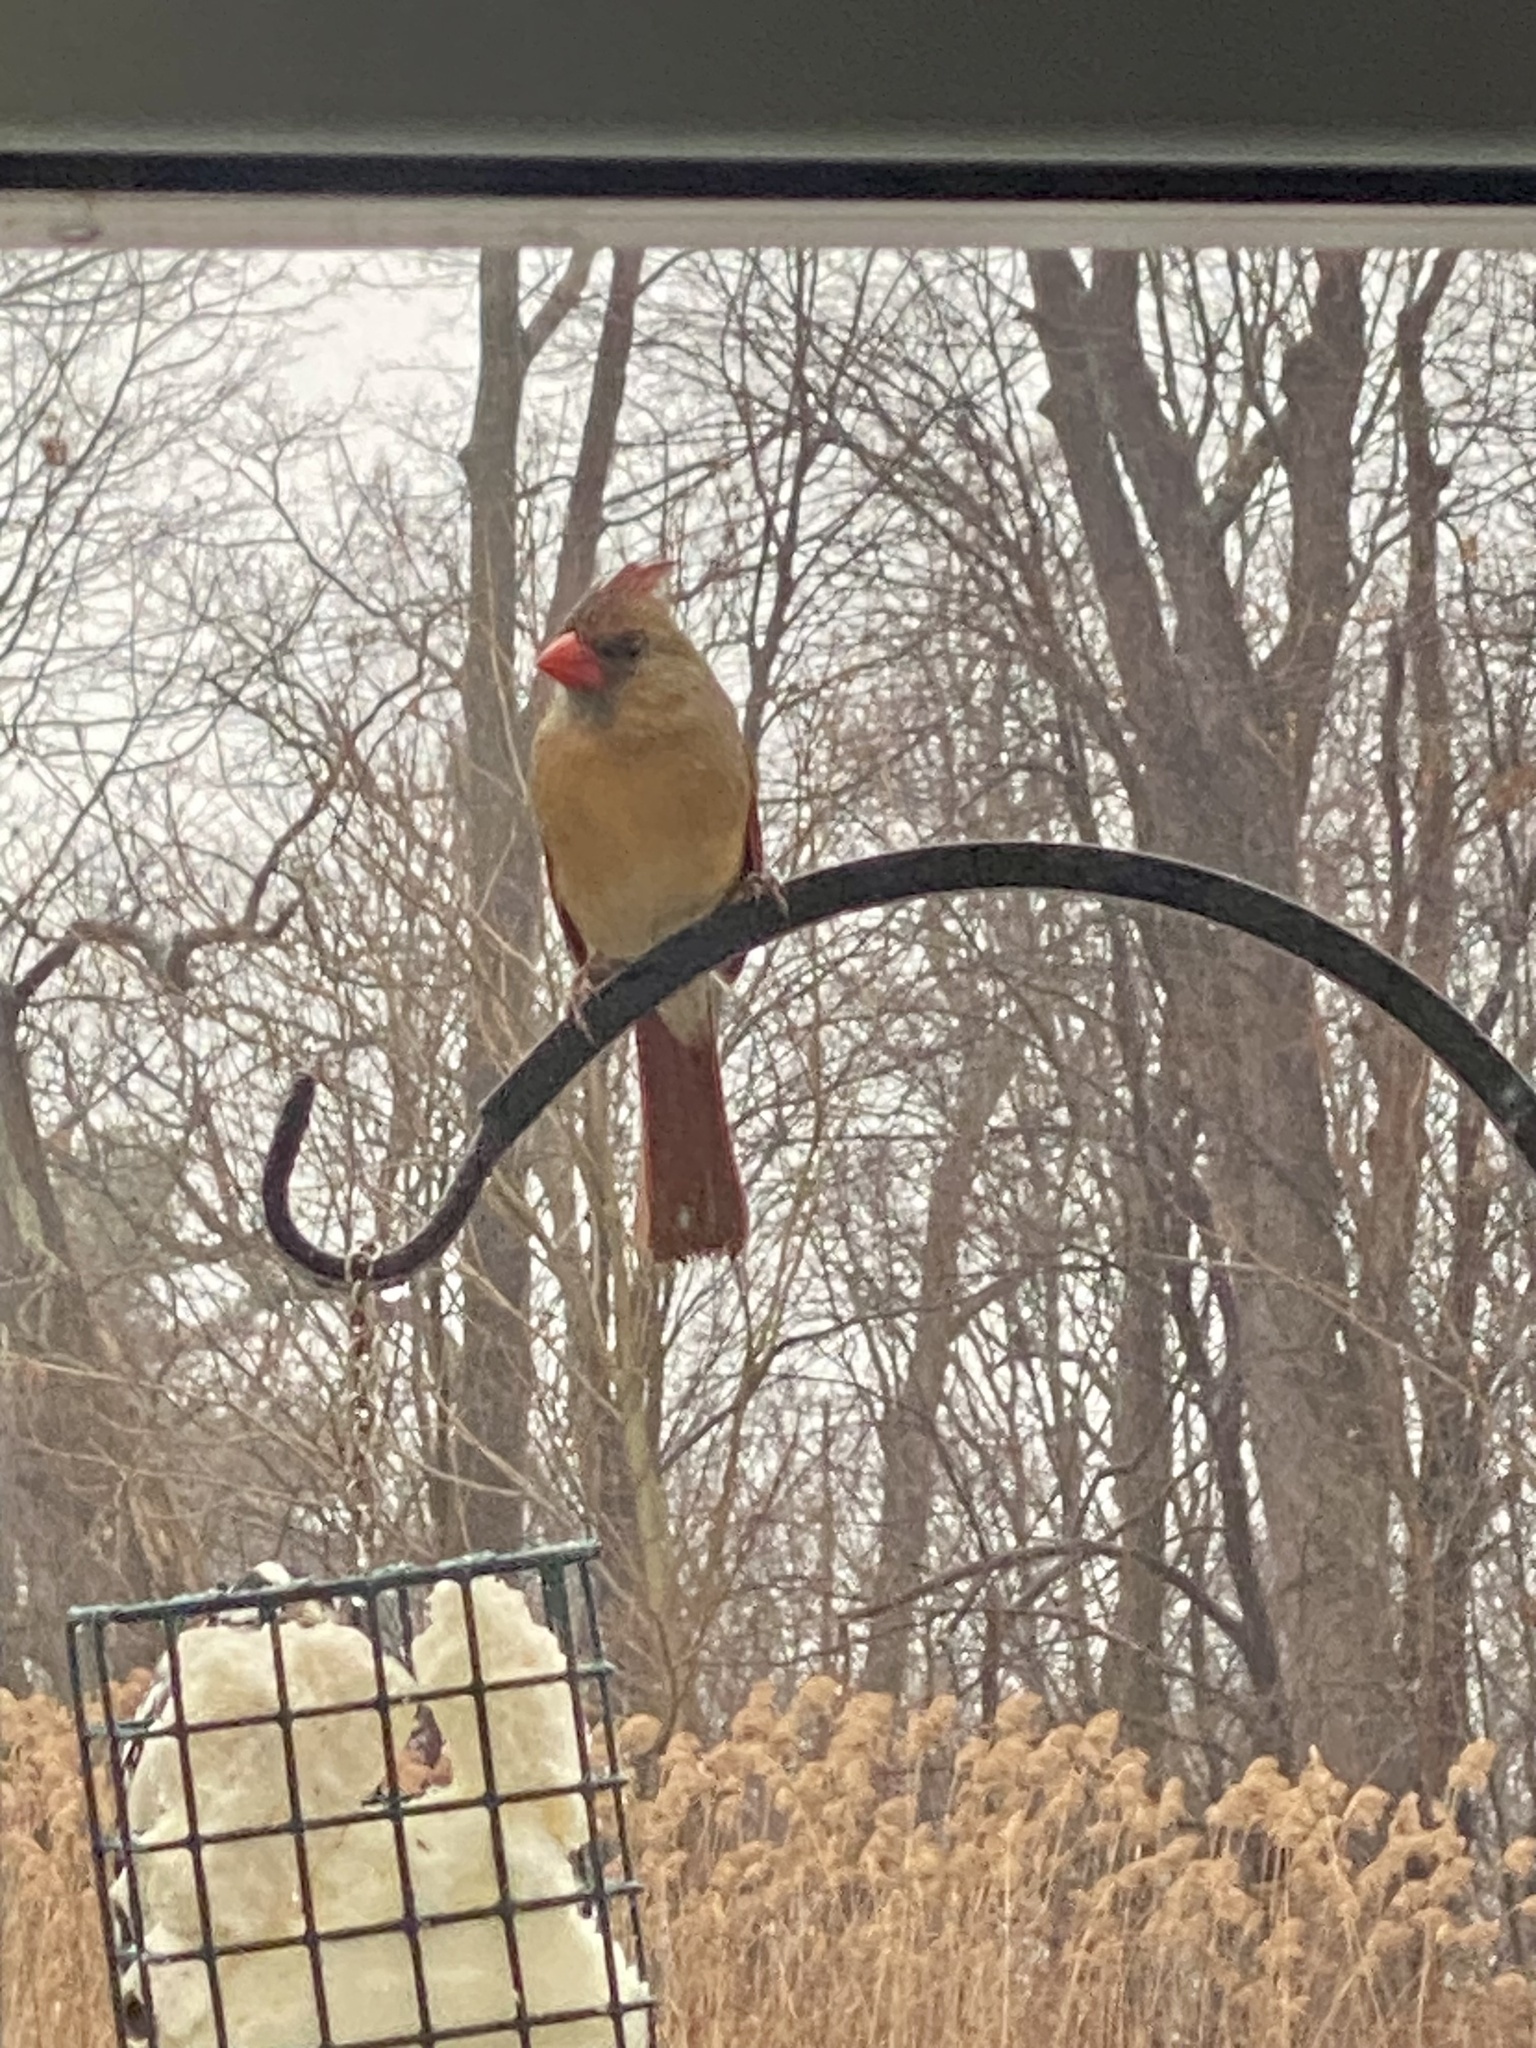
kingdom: Animalia
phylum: Chordata
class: Aves
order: Passeriformes
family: Cardinalidae
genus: Cardinalis
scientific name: Cardinalis cardinalis
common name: Northern cardinal
